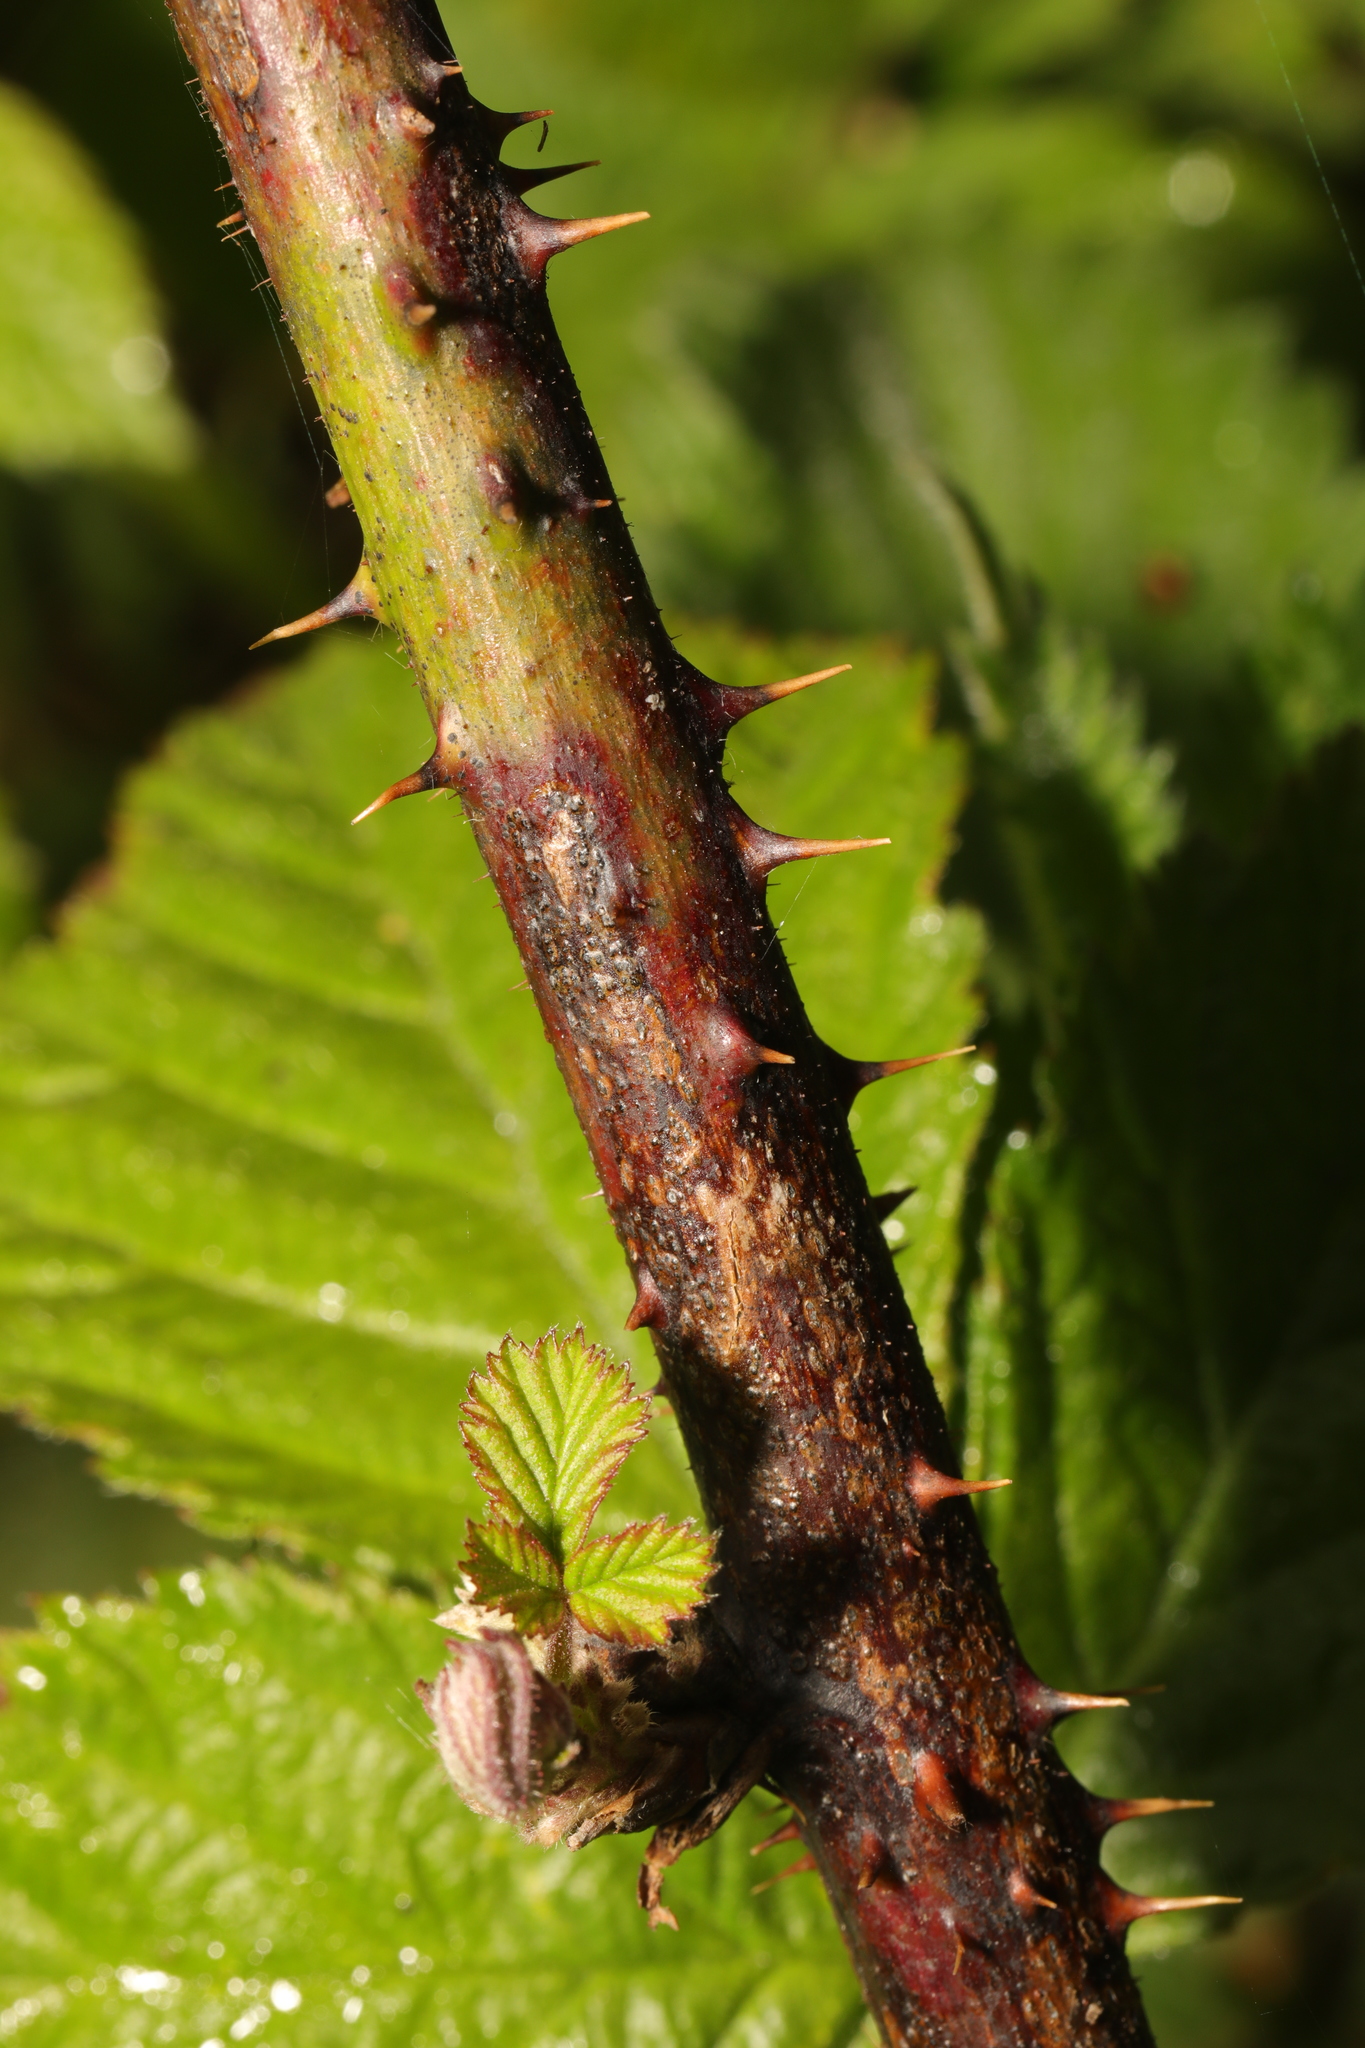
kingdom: Plantae
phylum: Tracheophyta
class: Magnoliopsida
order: Rosales
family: Rosaceae
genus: Rubus
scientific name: Rubus horrefactus
